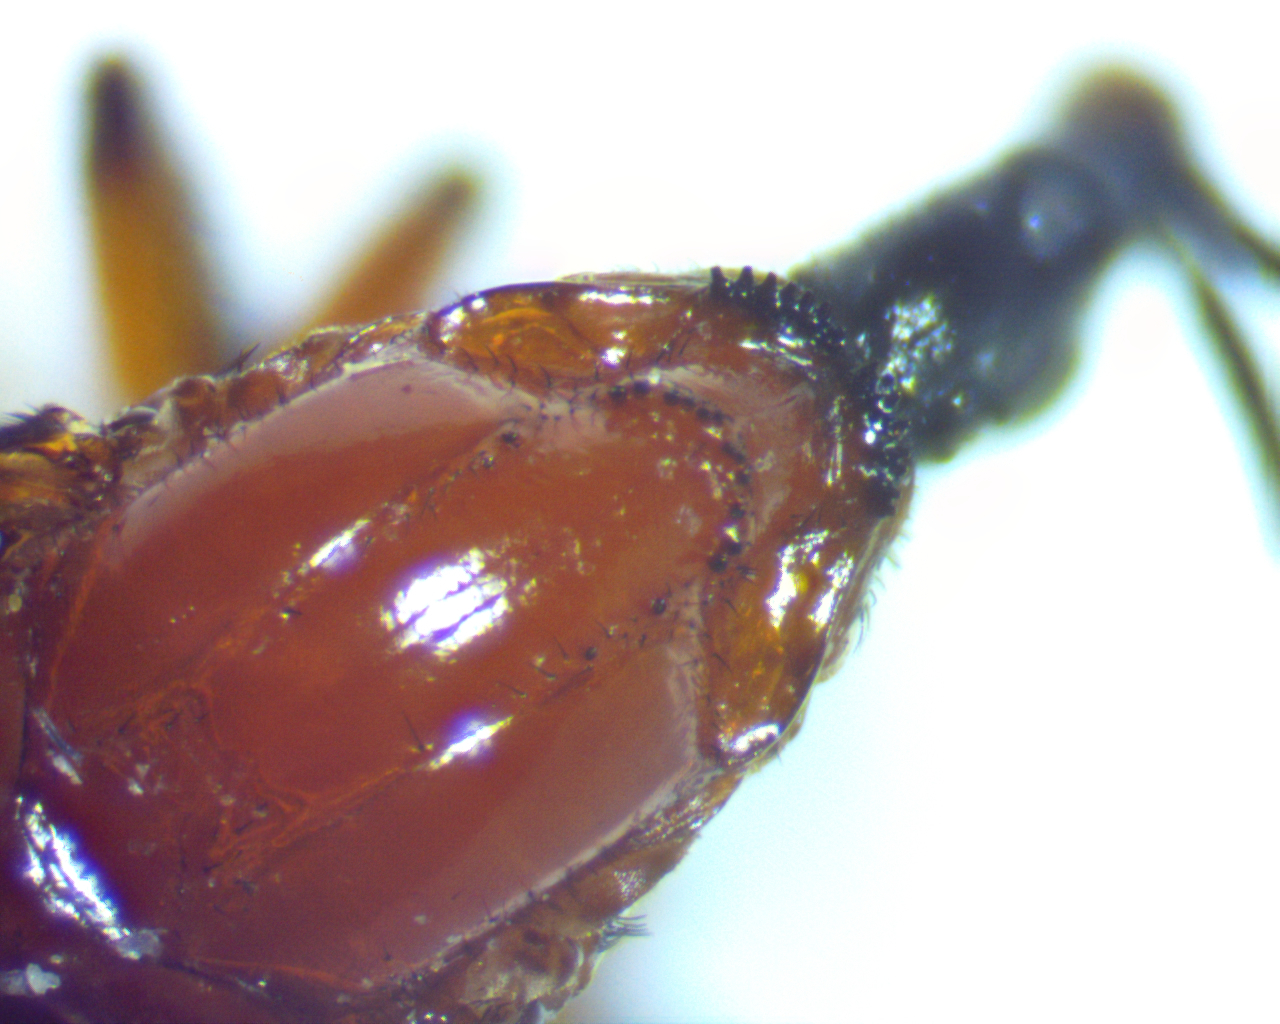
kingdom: Animalia
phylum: Arthropoda
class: Insecta
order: Diptera
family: Bibionidae
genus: Dilophus
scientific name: Dilophus spinipes
